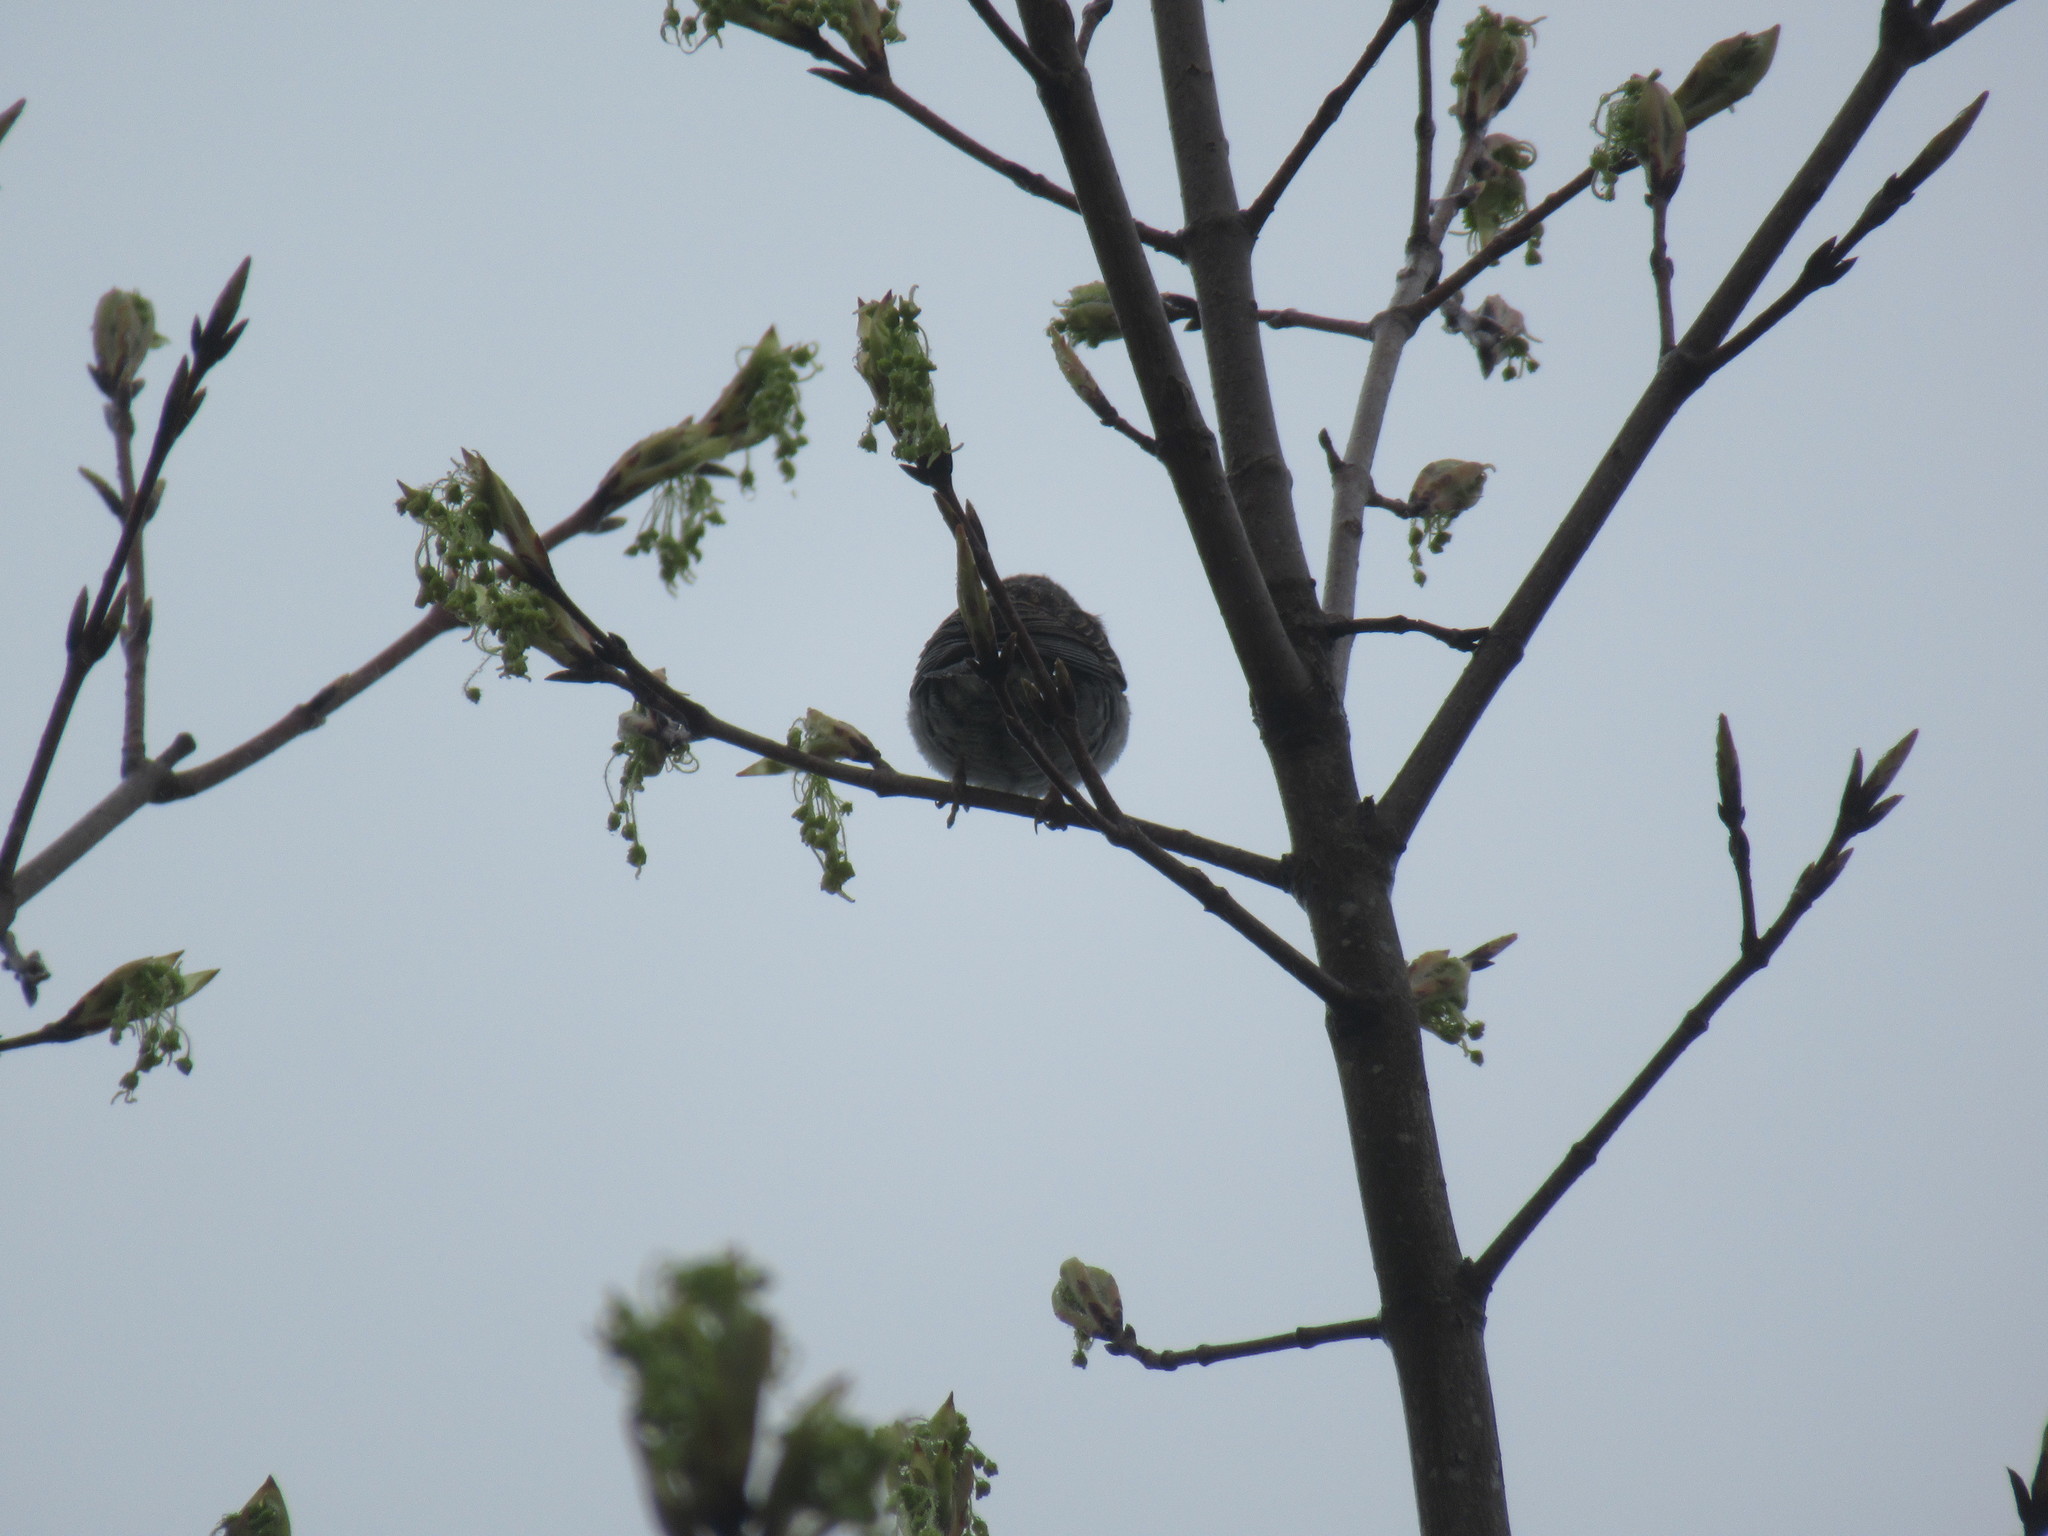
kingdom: Animalia
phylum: Chordata
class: Aves
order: Passeriformes
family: Passerellidae
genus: Spizella
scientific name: Spizella passerina
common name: Chipping sparrow
